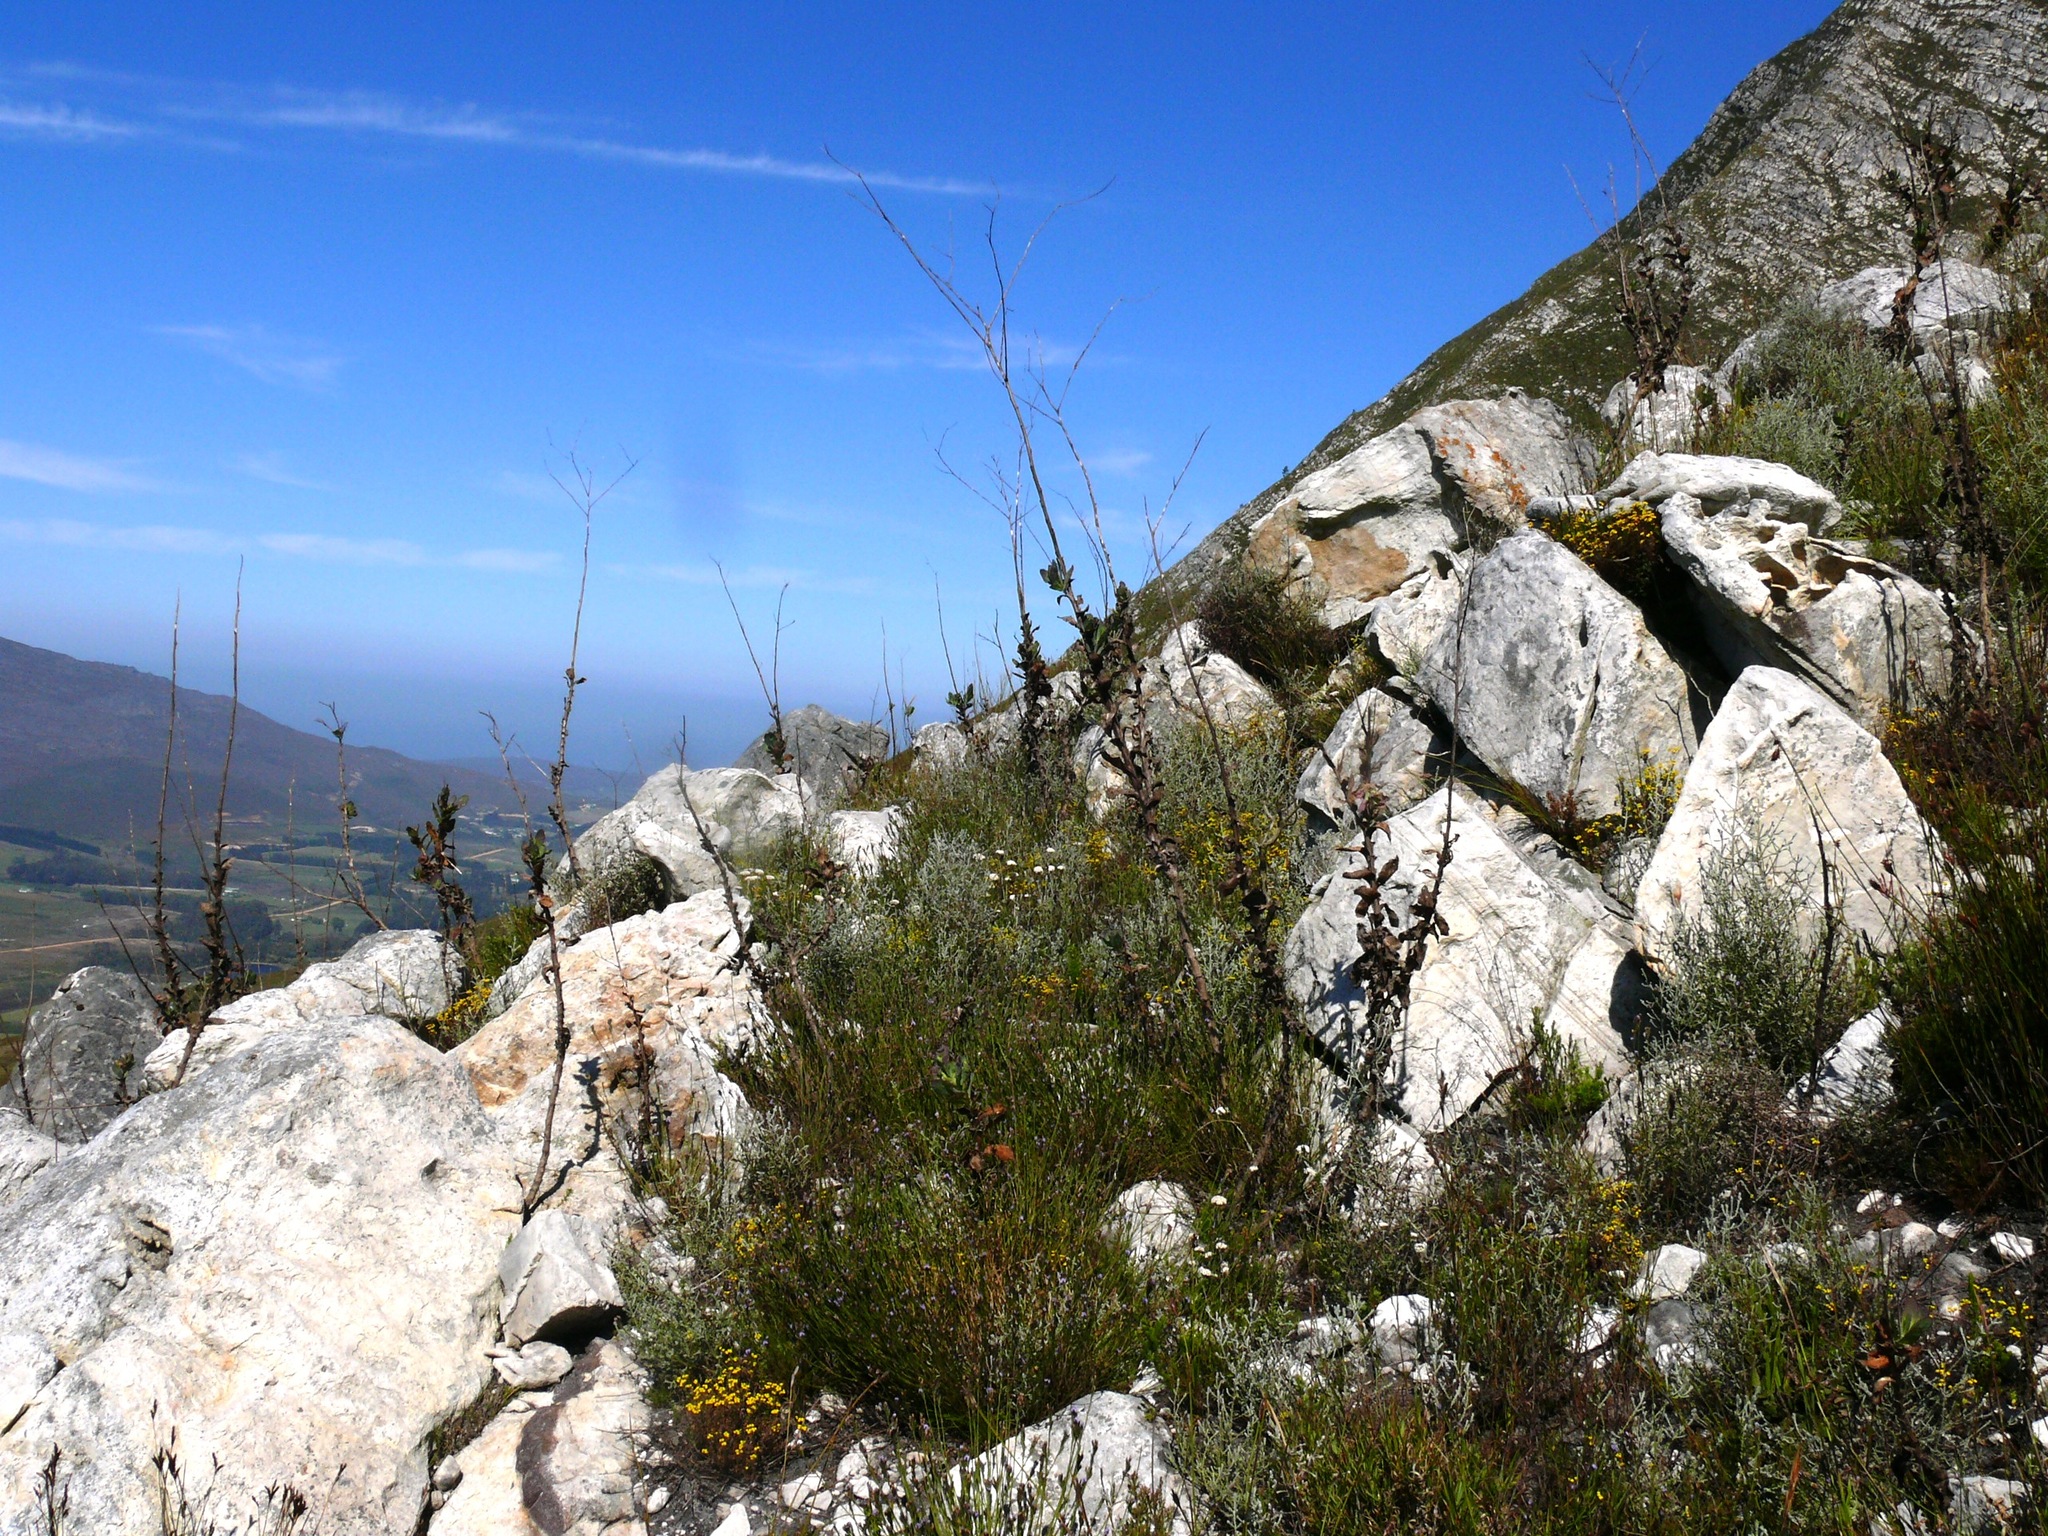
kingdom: Plantae
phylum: Tracheophyta
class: Magnoliopsida
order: Asterales
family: Asteraceae
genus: Othonna
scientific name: Othonna quinquedentata
